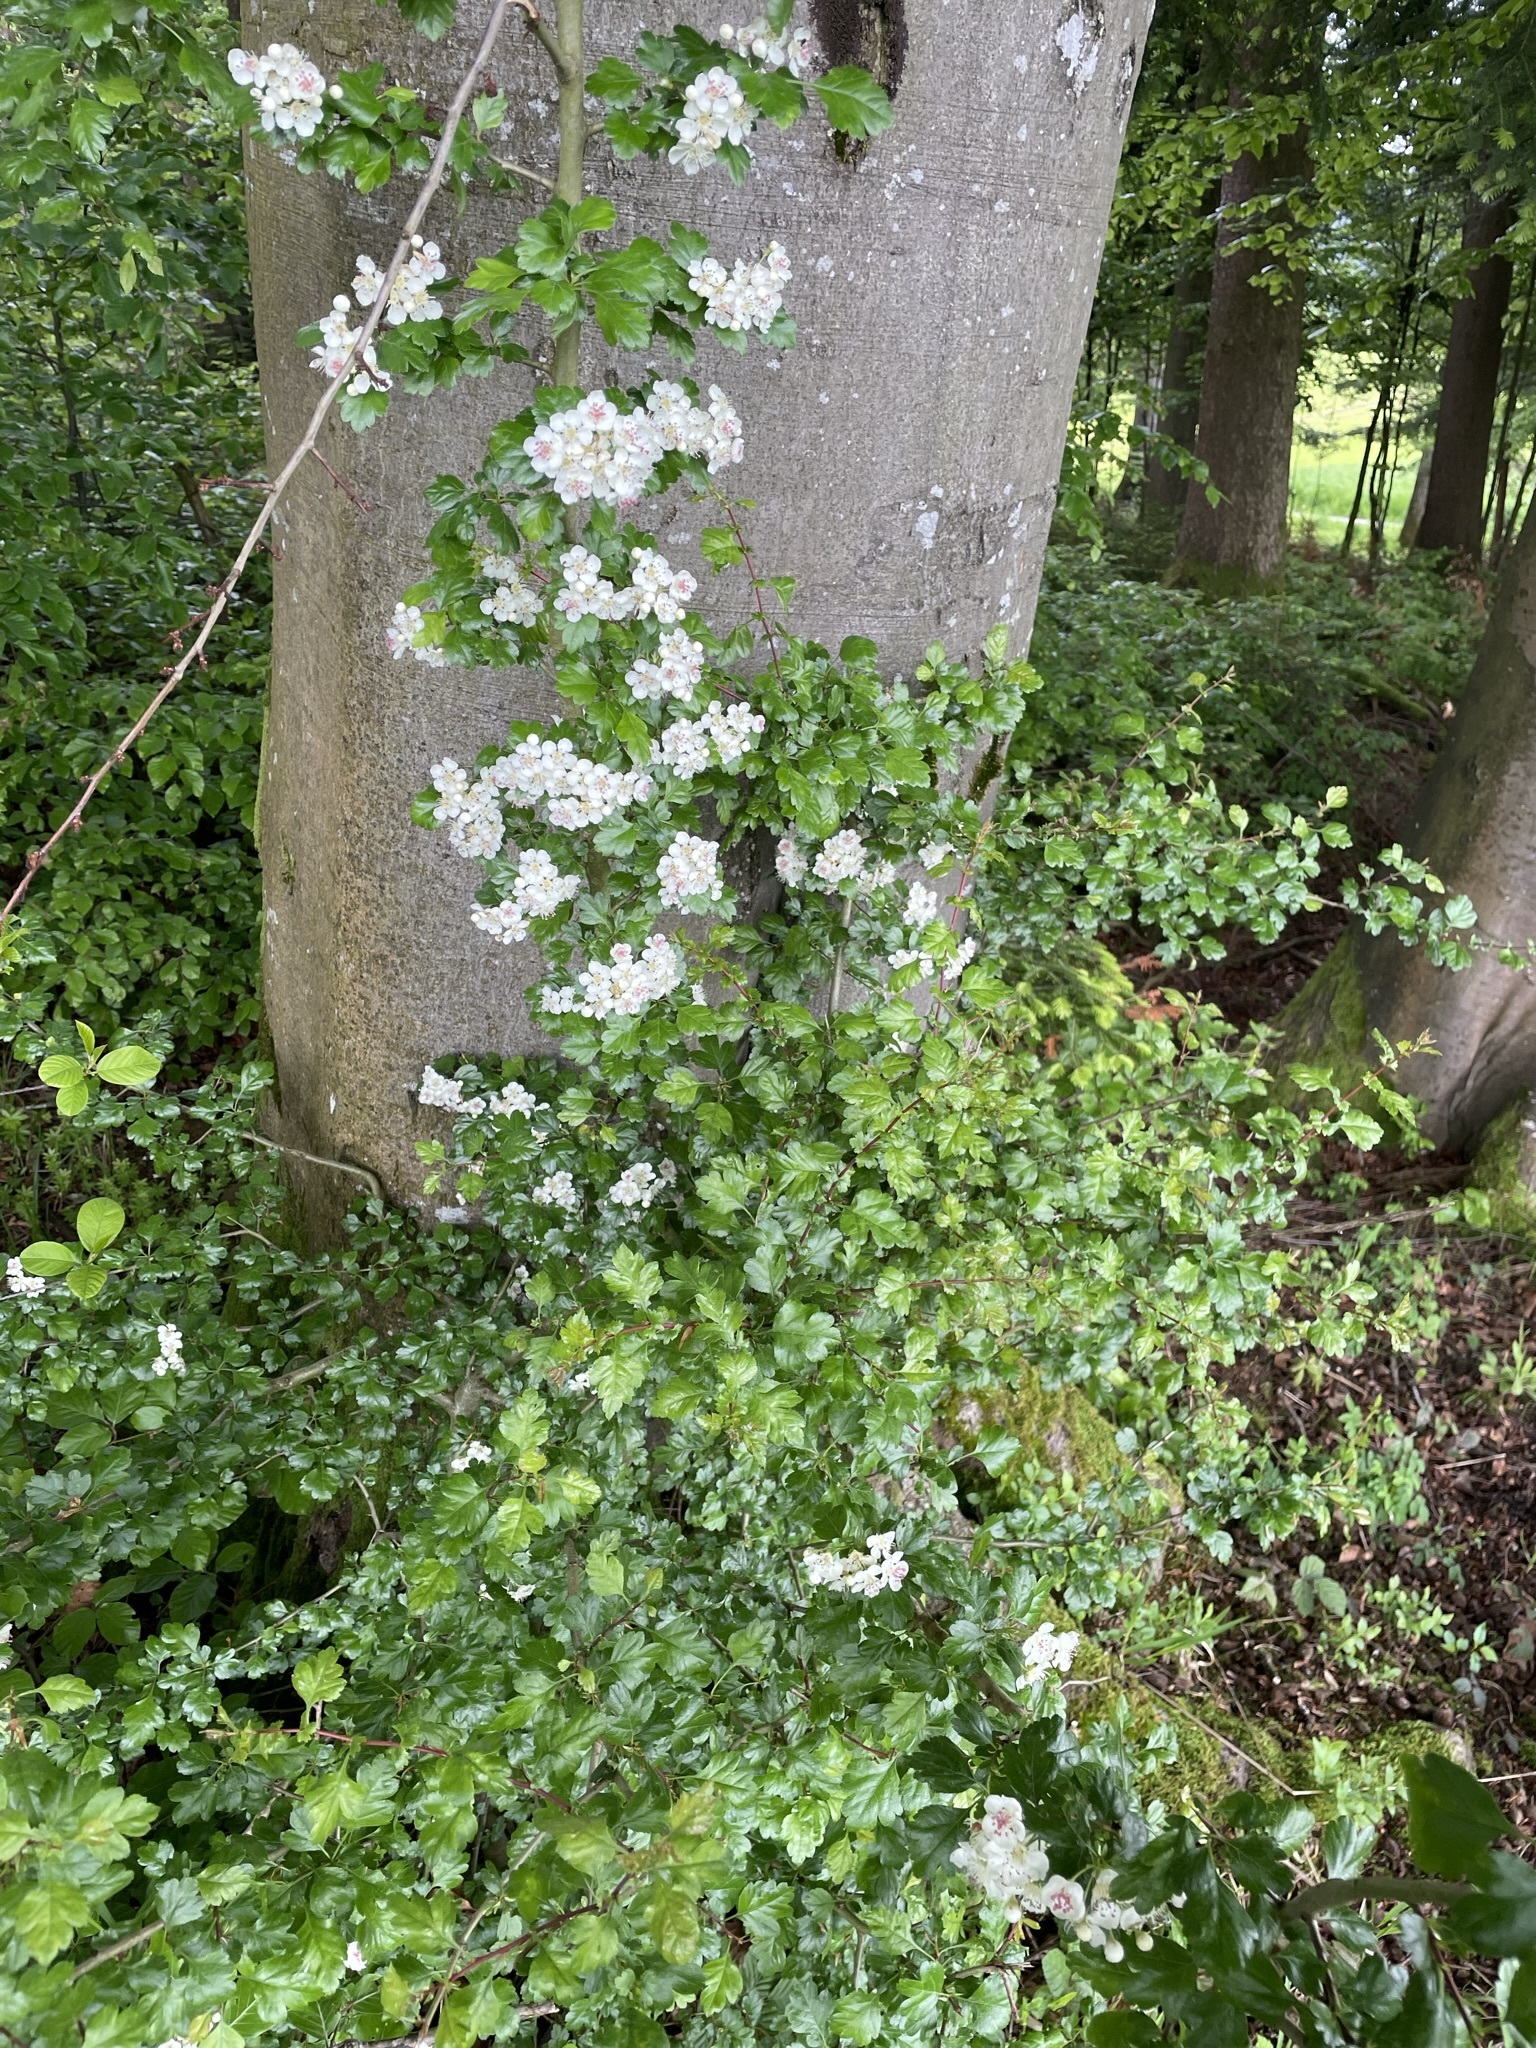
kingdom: Plantae
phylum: Tracheophyta
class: Magnoliopsida
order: Rosales
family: Rosaceae
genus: Crataegus
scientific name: Crataegus laevigata
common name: Midland hawthorn
